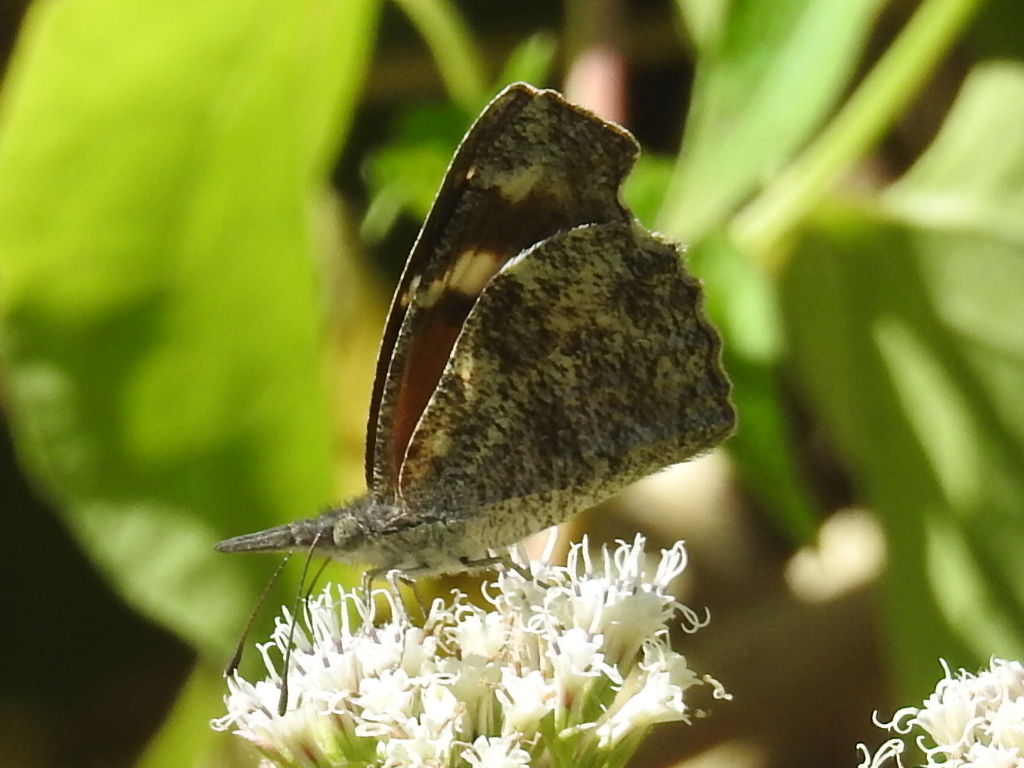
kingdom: Animalia
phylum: Arthropoda
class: Insecta
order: Lepidoptera
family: Nymphalidae
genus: Libytheana
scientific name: Libytheana carinenta
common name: American snout
